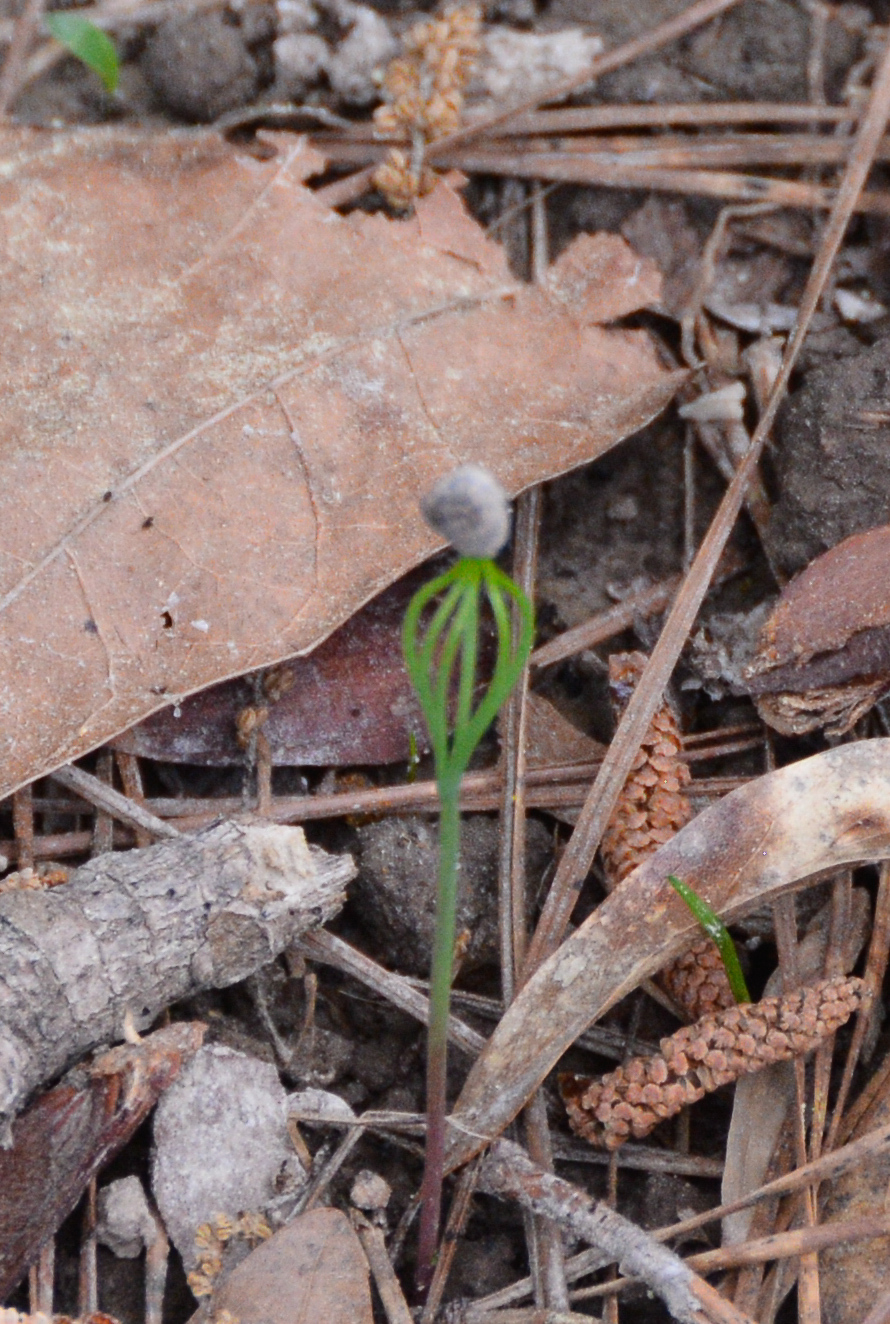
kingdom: Plantae
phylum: Tracheophyta
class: Pinopsida
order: Pinales
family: Pinaceae
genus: Pinus
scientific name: Pinus
